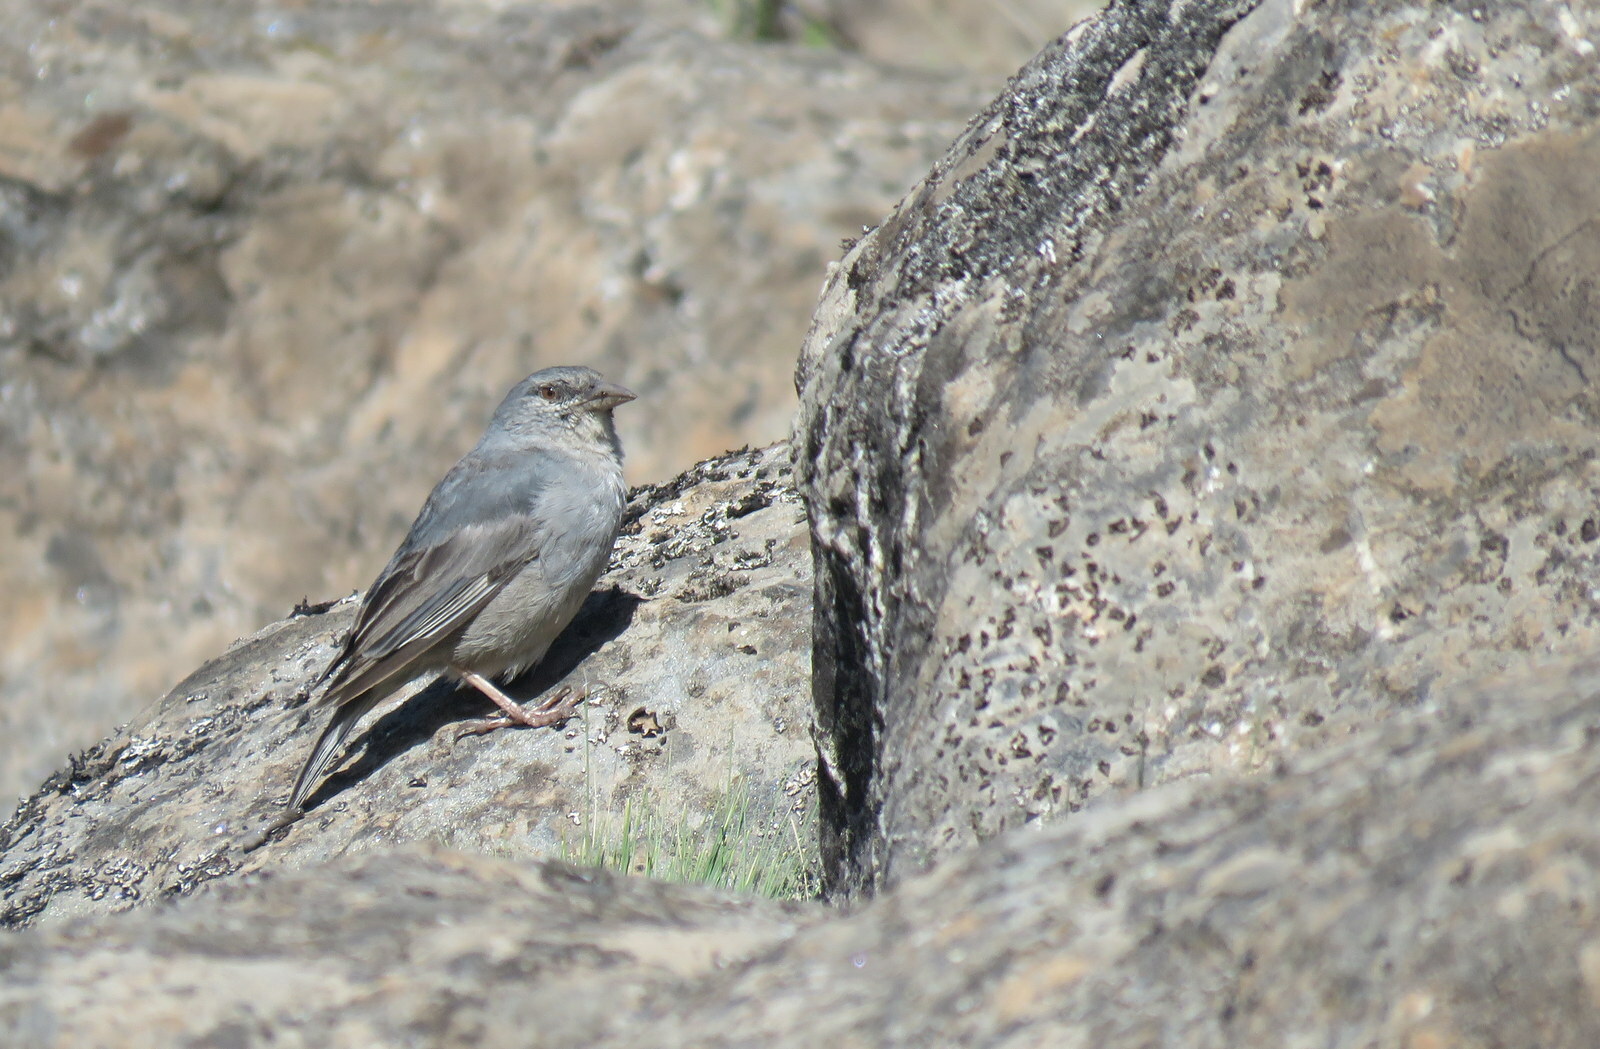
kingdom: Animalia
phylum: Chordata
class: Aves
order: Passeriformes
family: Thraupidae
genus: Idiopsar
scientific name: Idiopsar brachyurus
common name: Short-tailed finch
